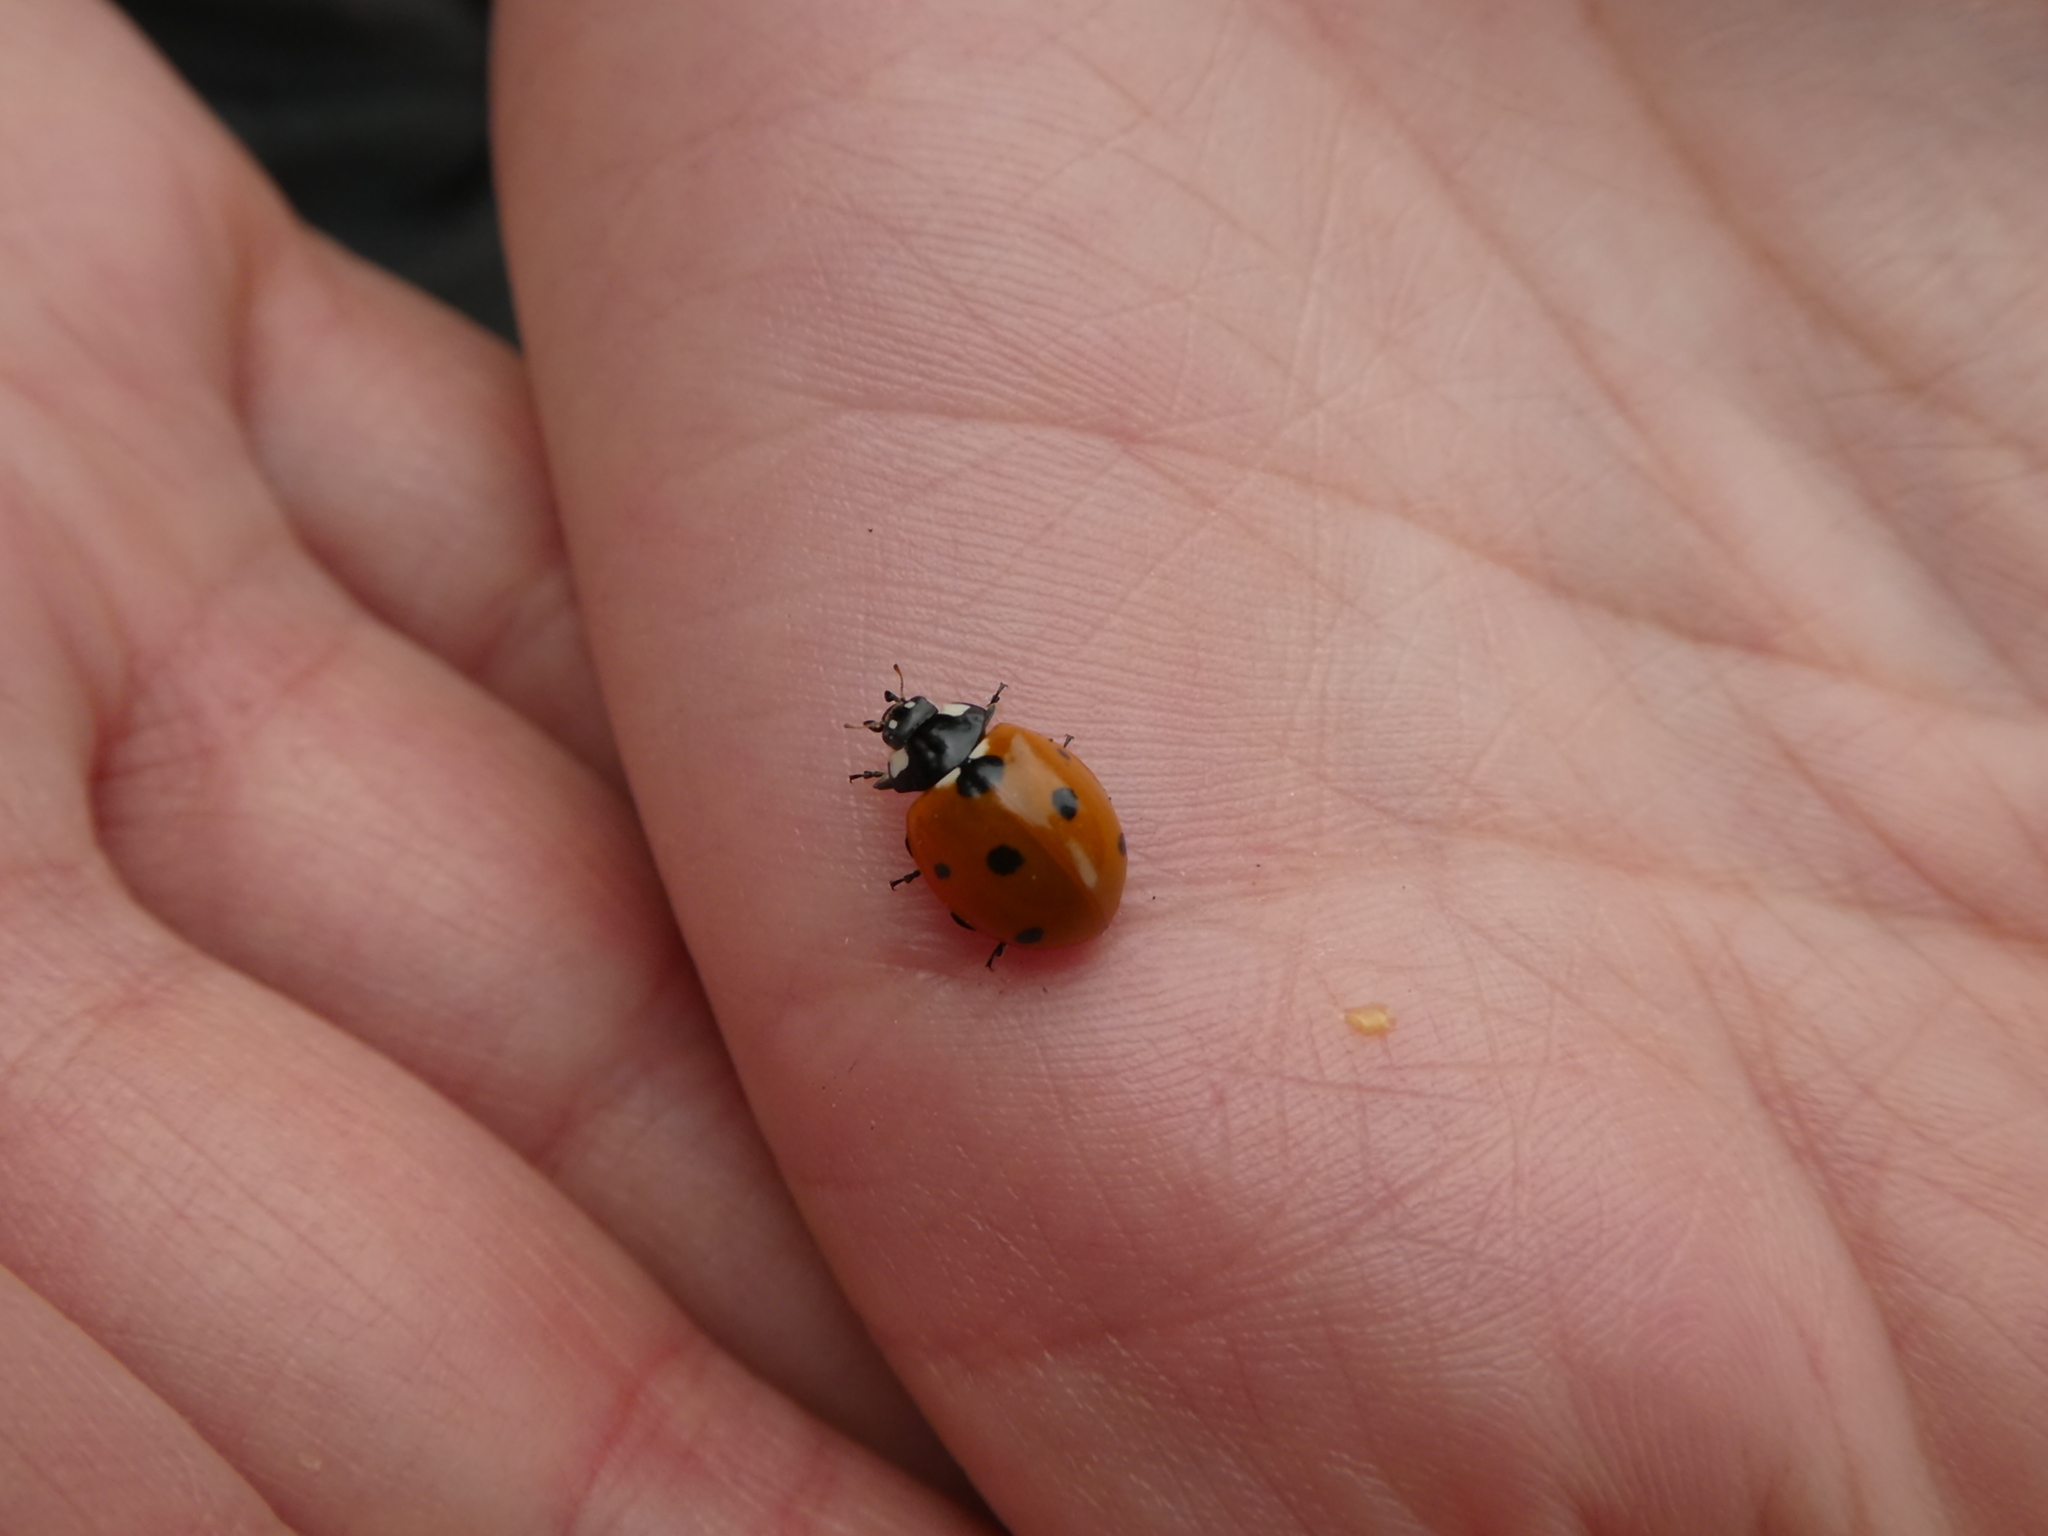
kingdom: Animalia
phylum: Arthropoda
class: Insecta
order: Coleoptera
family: Coccinellidae
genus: Coccinella
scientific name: Coccinella septempunctata
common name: Sevenspotted lady beetle
